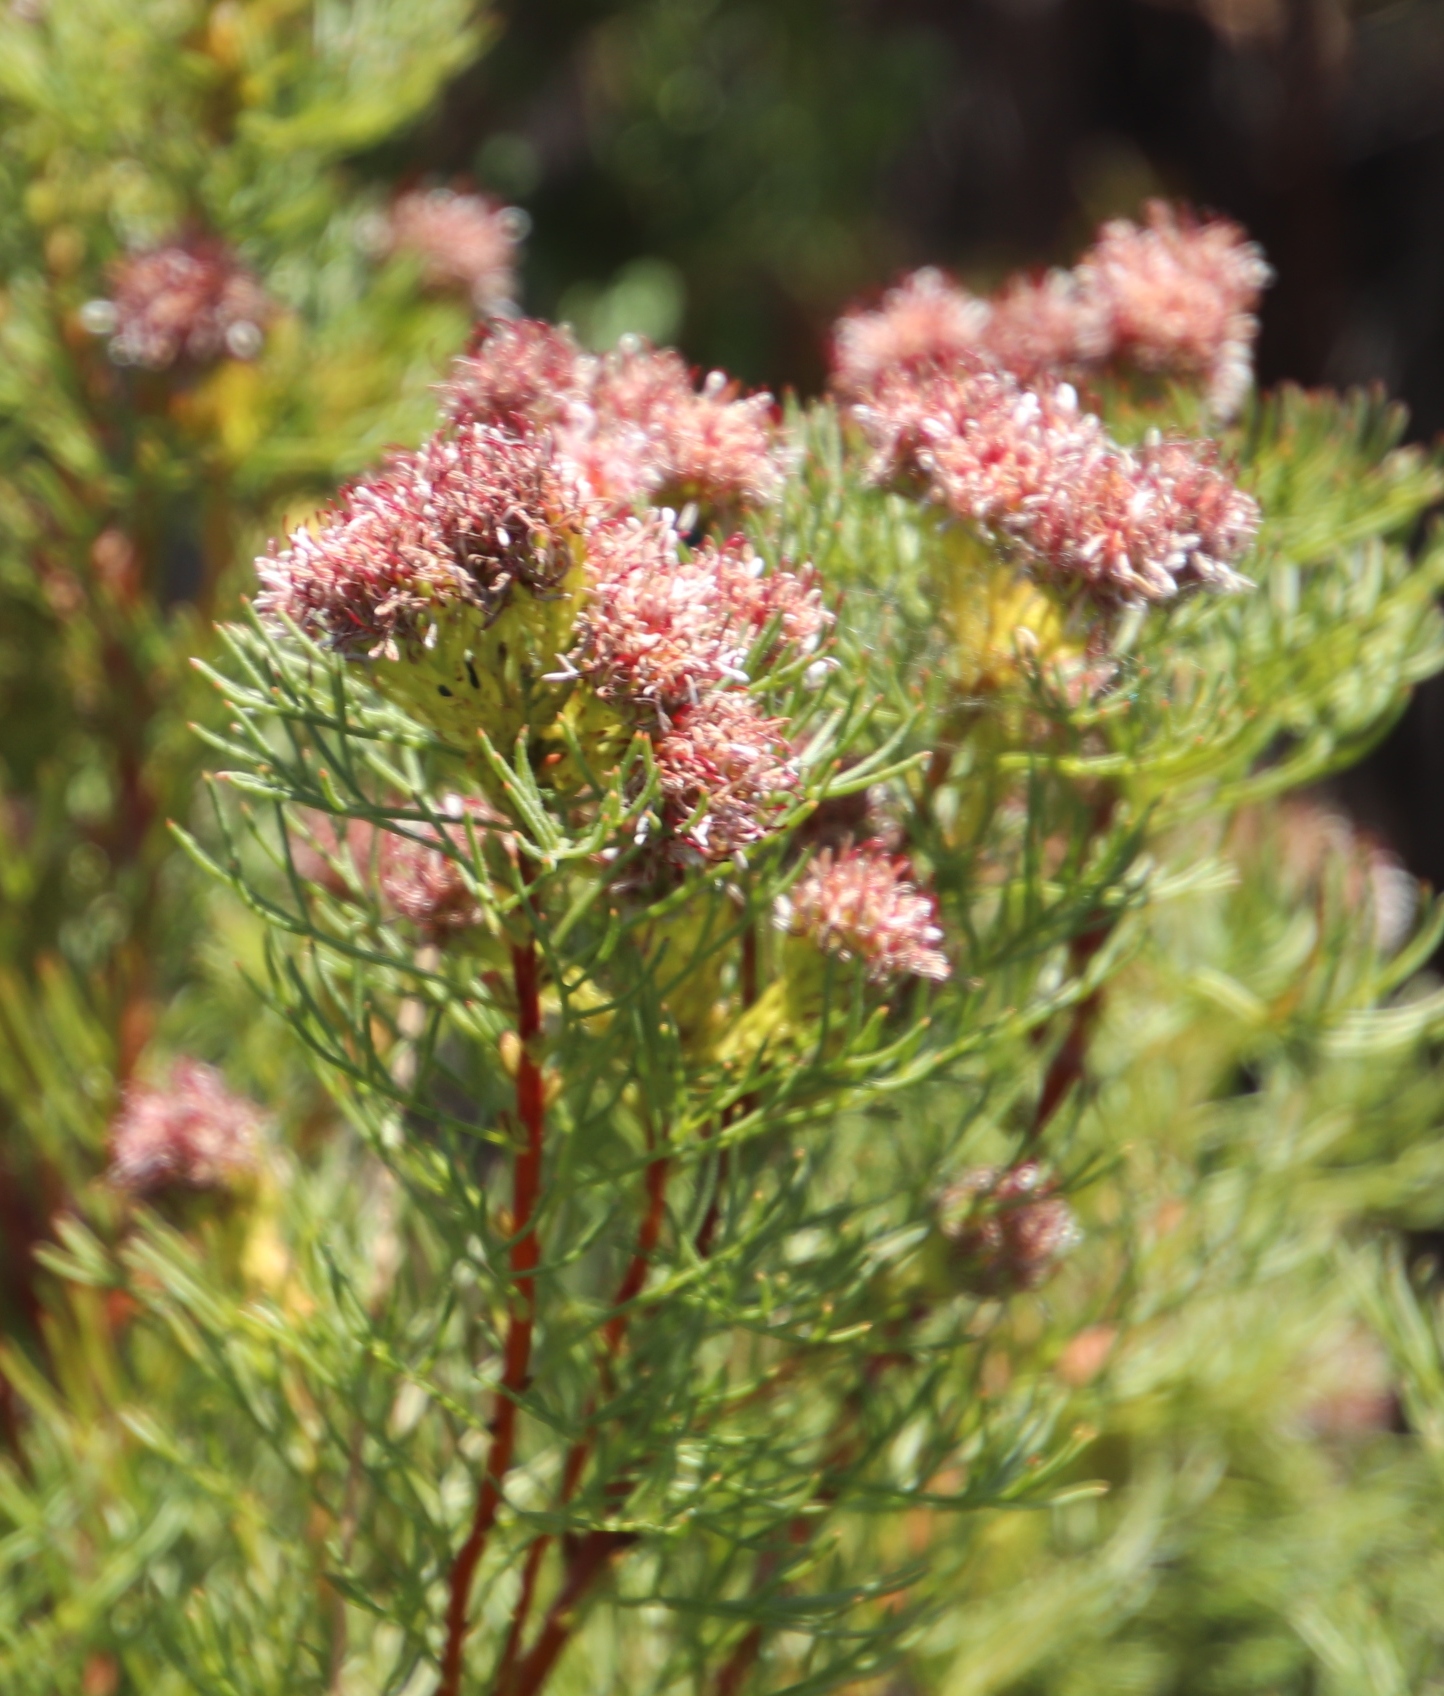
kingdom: Plantae
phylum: Tracheophyta
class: Magnoliopsida
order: Proteales
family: Proteaceae
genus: Serruria
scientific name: Serruria
